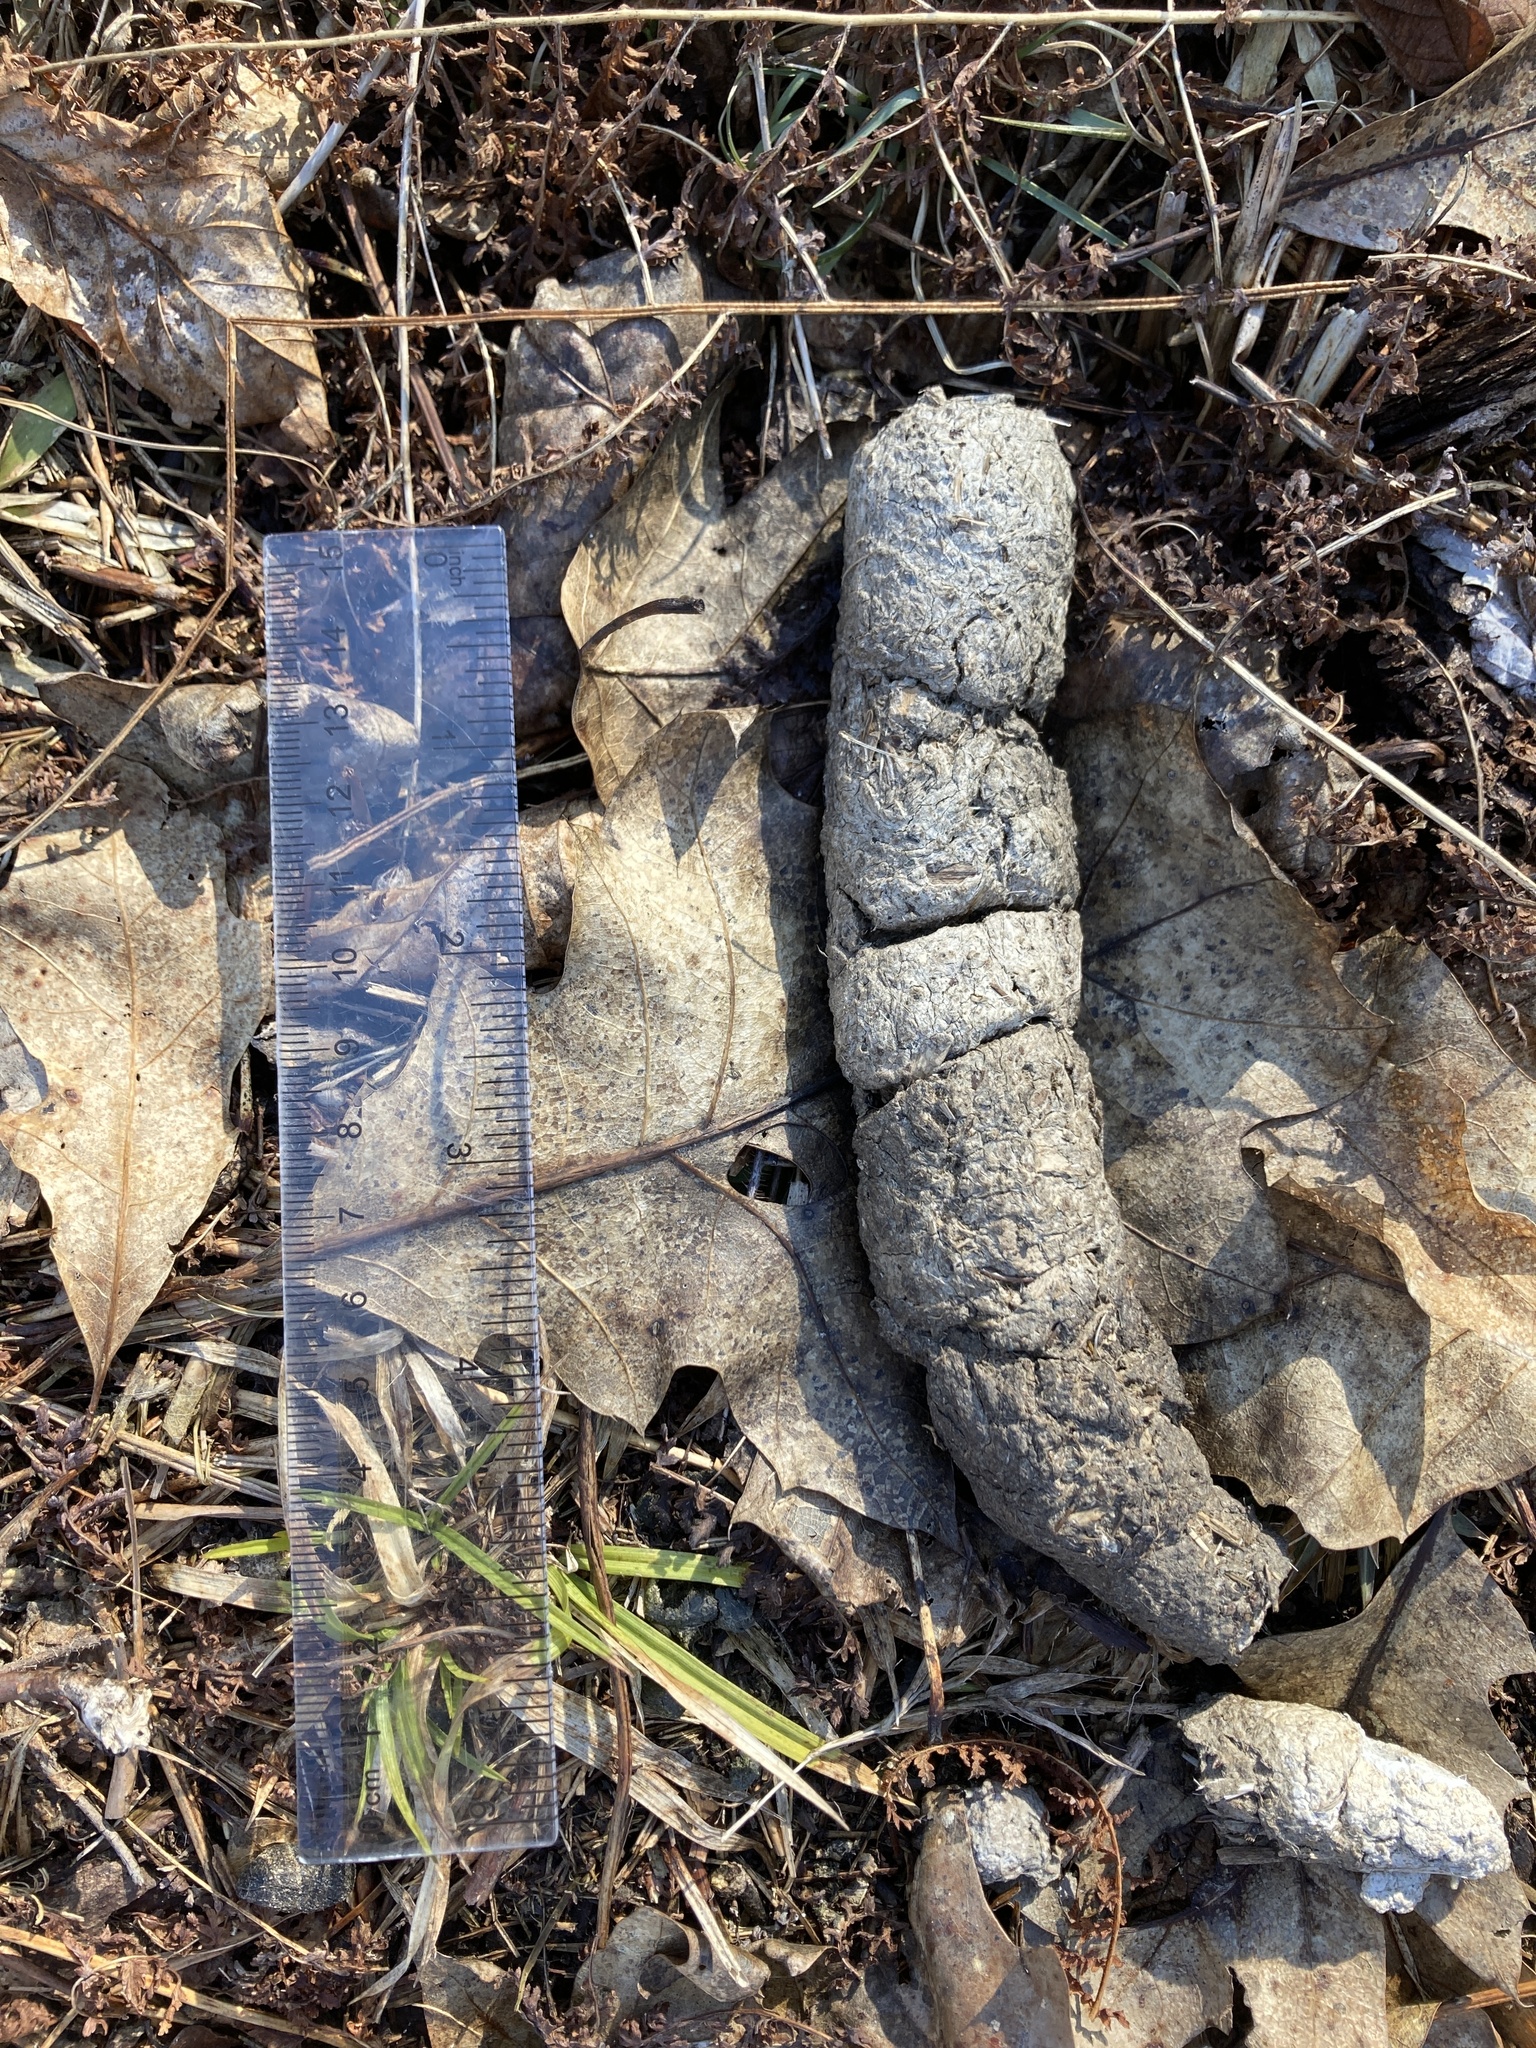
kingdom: Animalia
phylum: Chordata
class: Mammalia
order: Carnivora
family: Felidae
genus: Lynx
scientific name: Lynx rufus
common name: Bobcat
